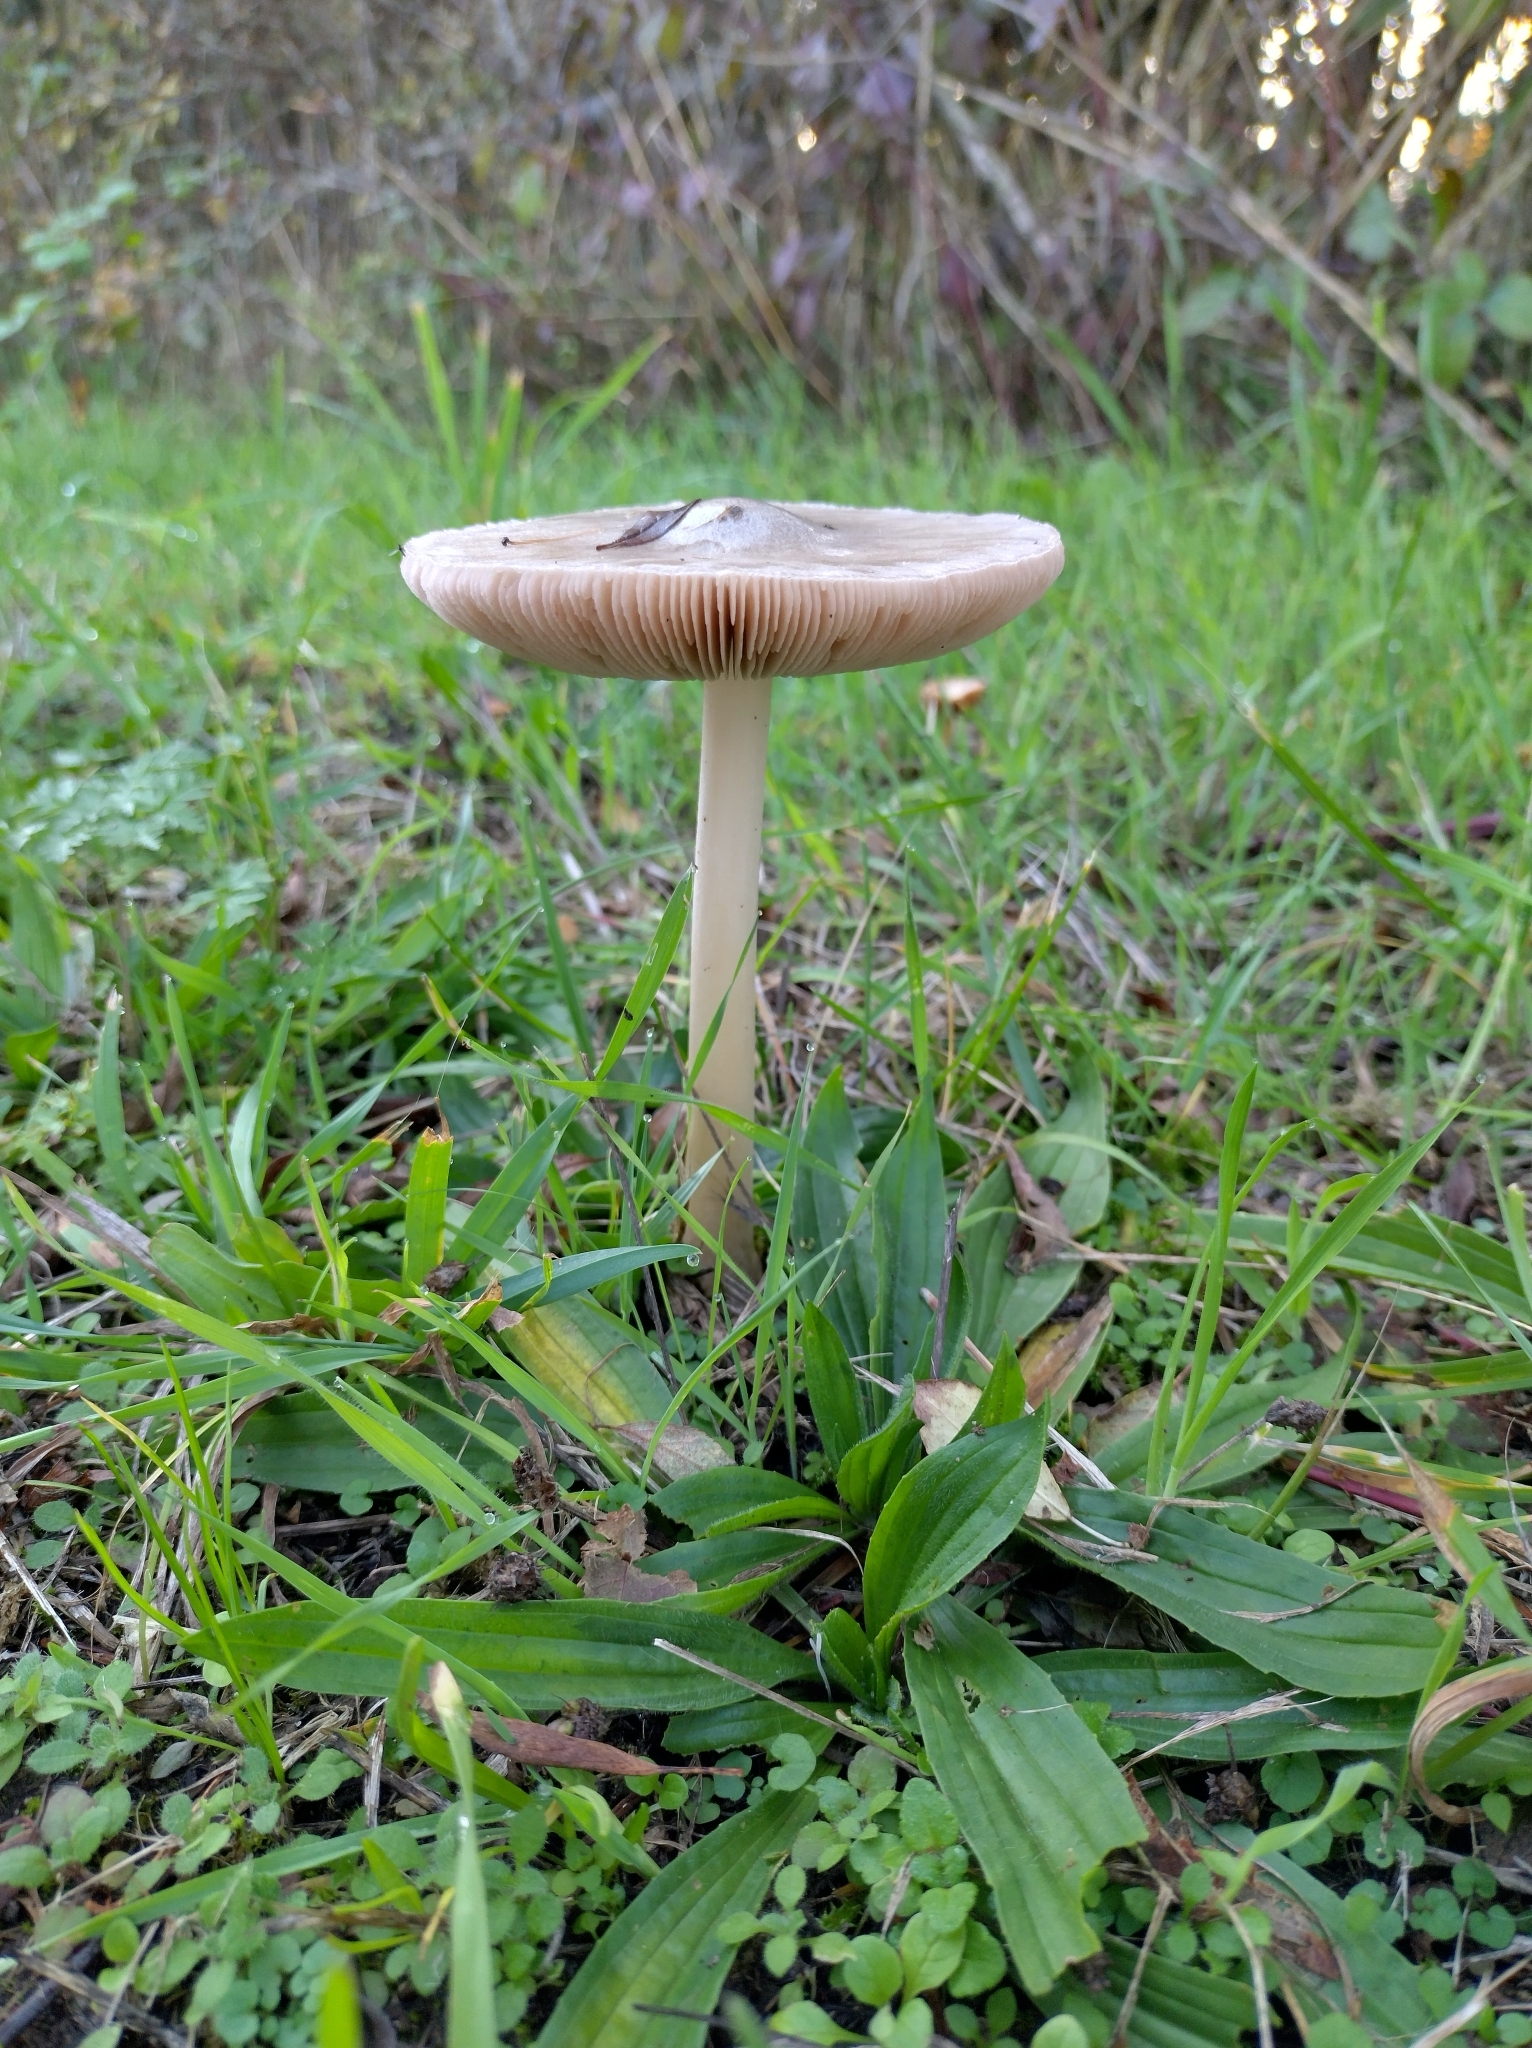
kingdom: Fungi
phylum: Basidiomycota
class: Agaricomycetes
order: Agaricales
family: Pluteaceae
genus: Volvopluteus
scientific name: Volvopluteus gloiocephalus
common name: Stubble rosegill
